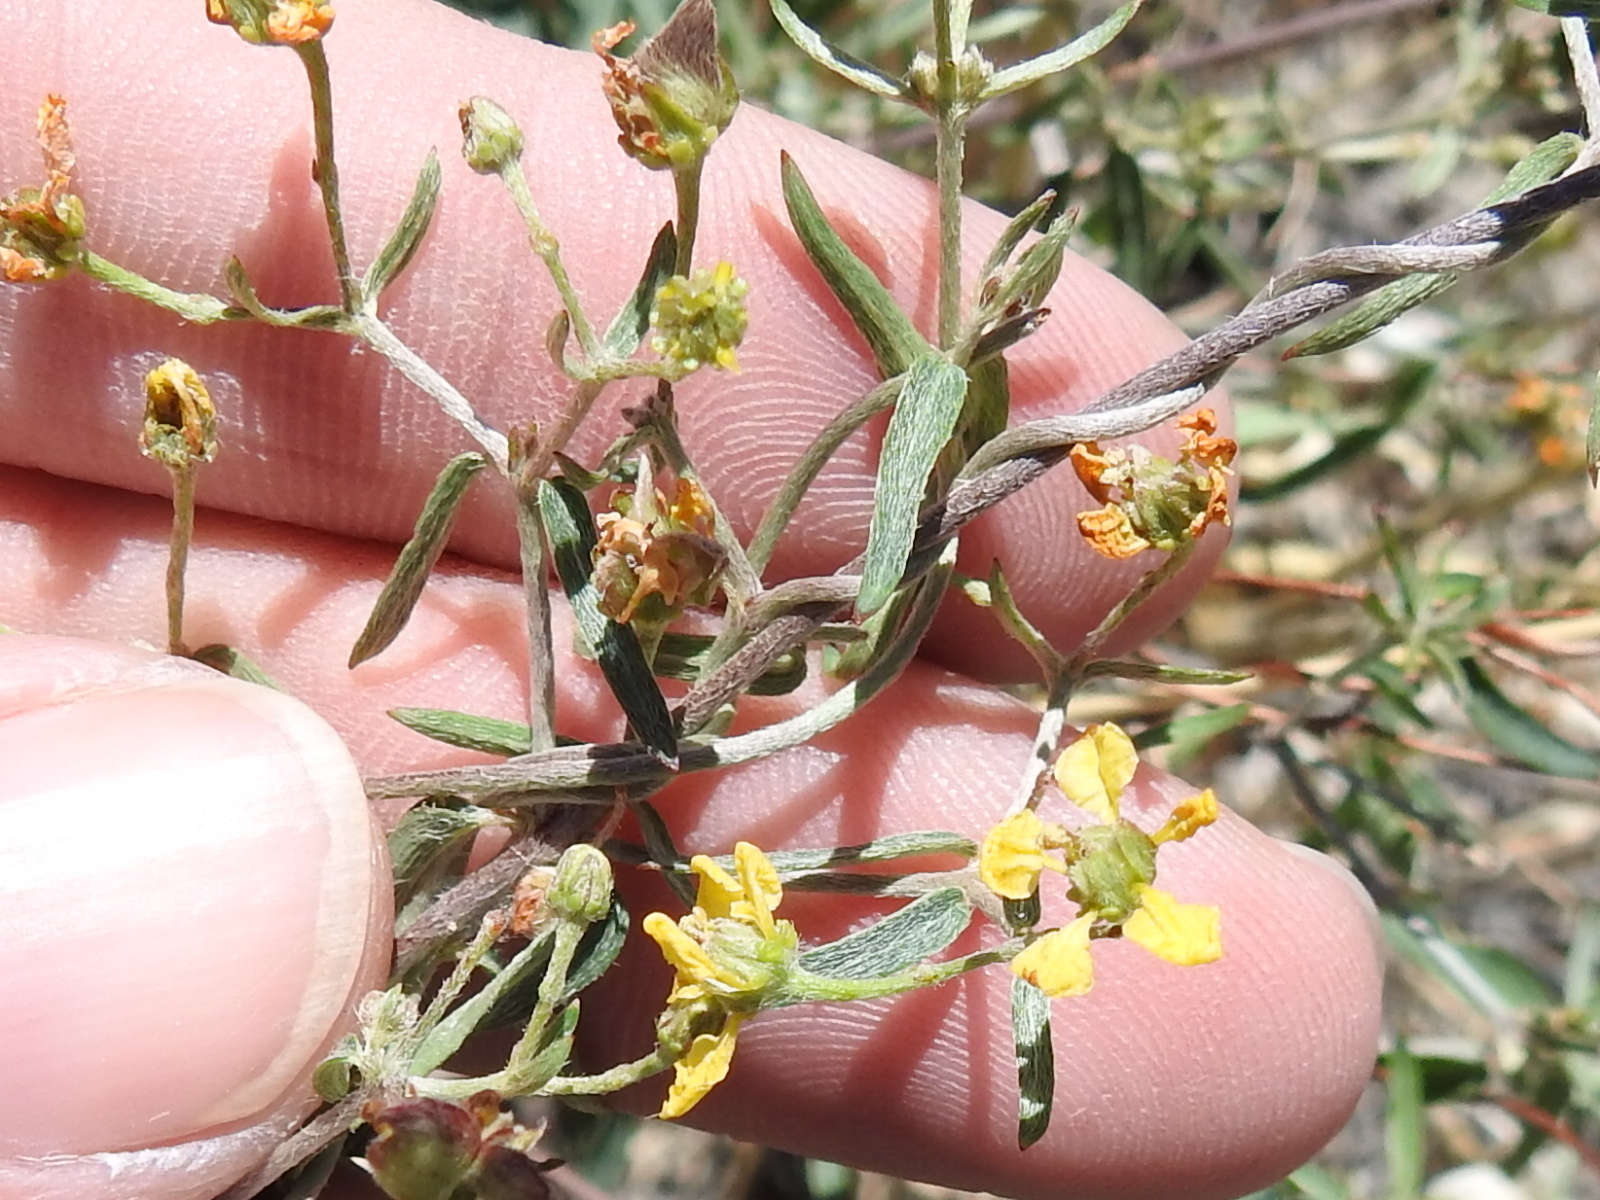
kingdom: Plantae
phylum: Tracheophyta
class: Magnoliopsida
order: Malpighiales
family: Malpighiaceae
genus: Cottsia
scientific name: Cottsia gracilis
